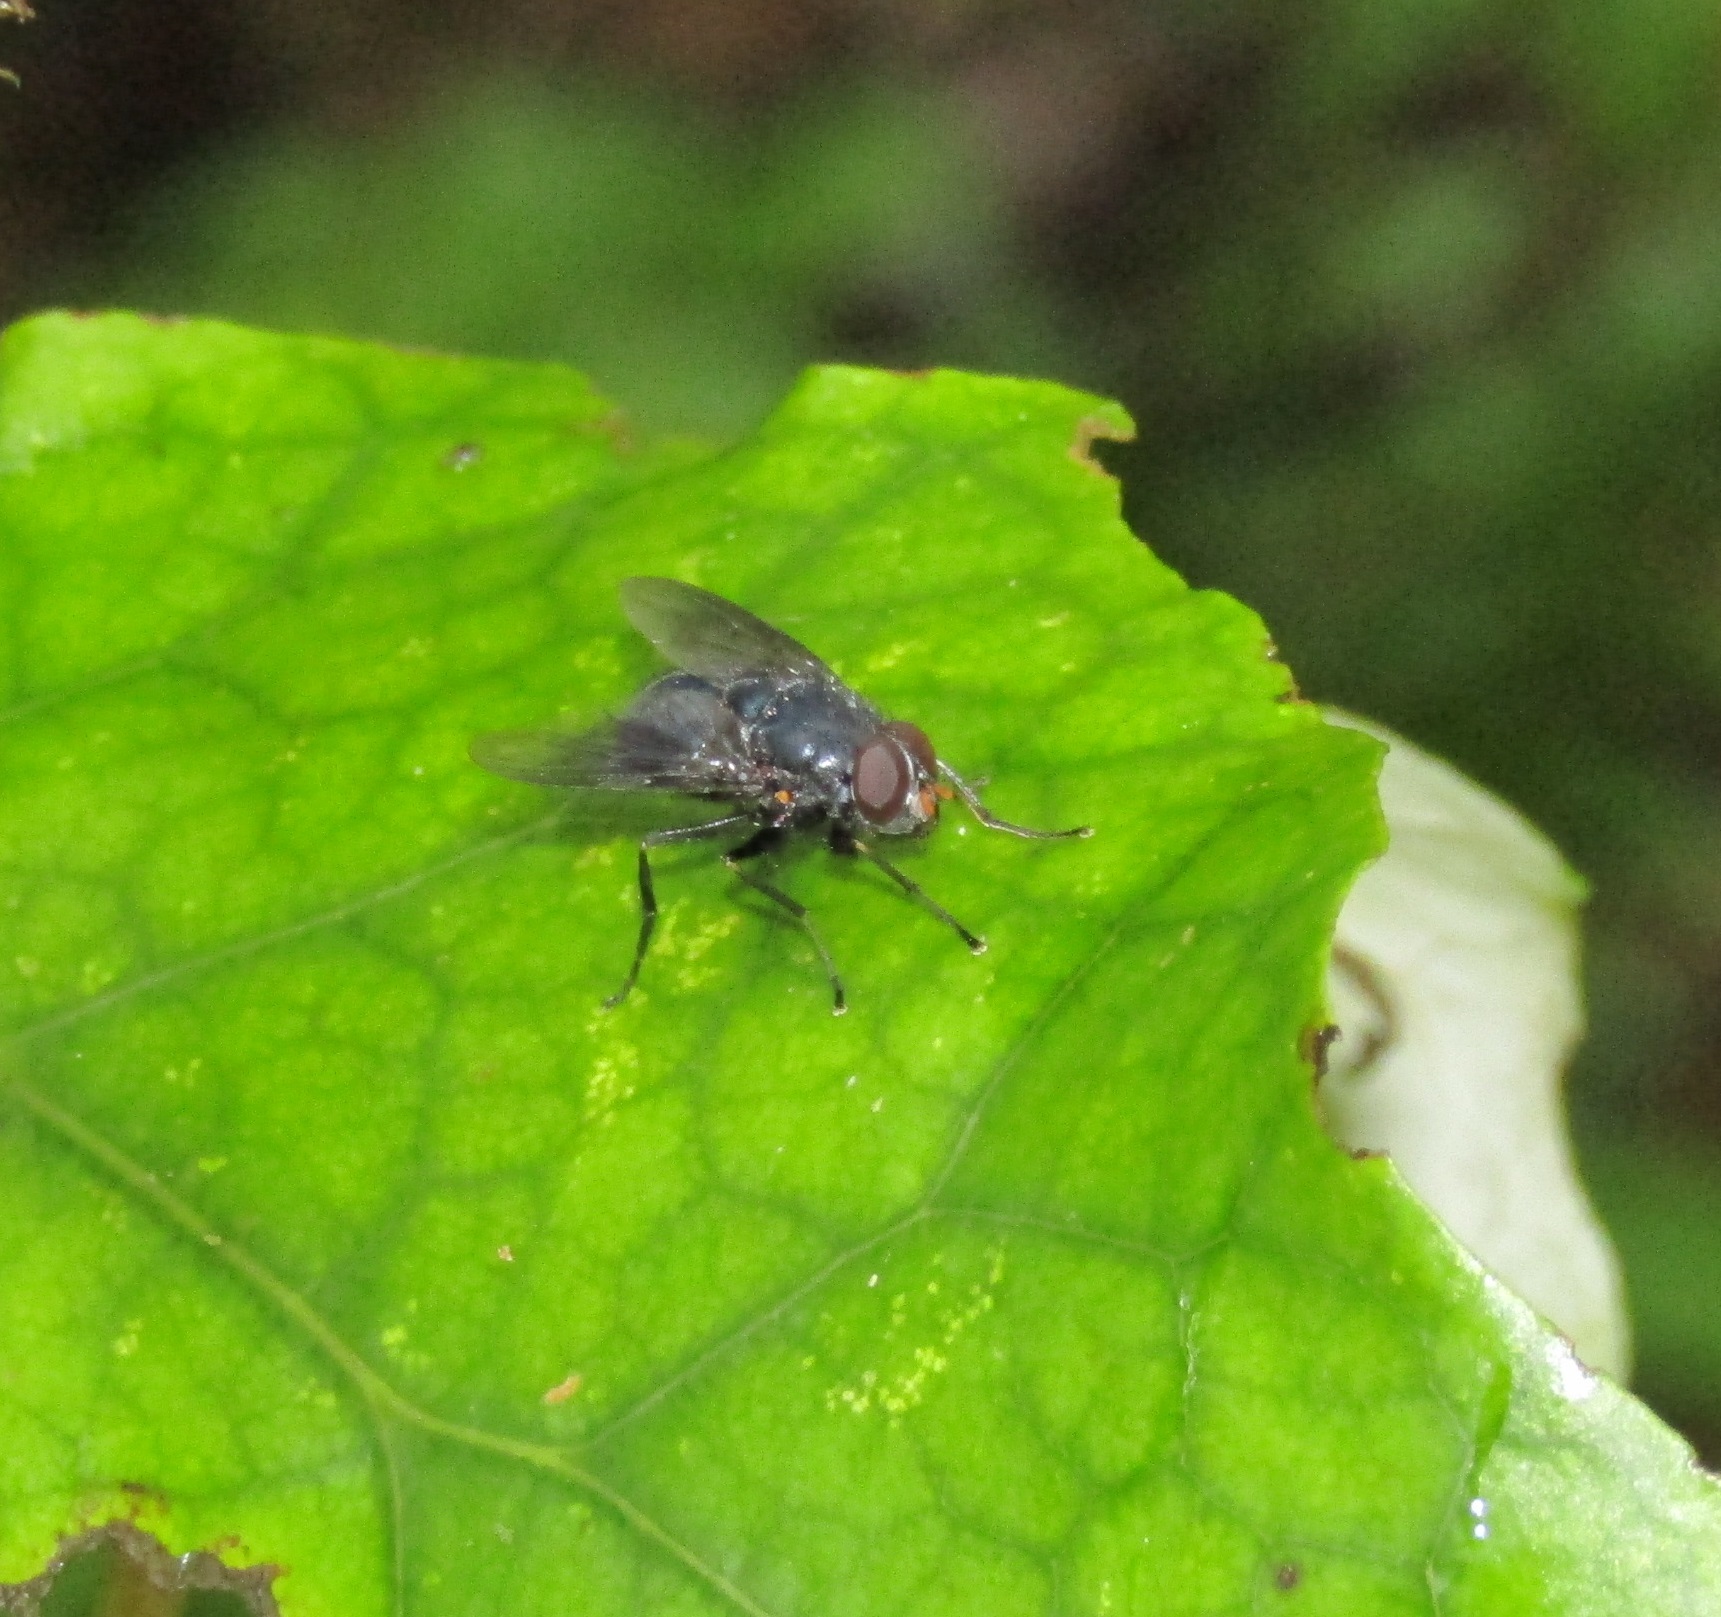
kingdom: Animalia
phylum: Arthropoda
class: Insecta
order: Diptera
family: Muscidae
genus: Calliphoroides
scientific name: Calliphoroides antennatis
